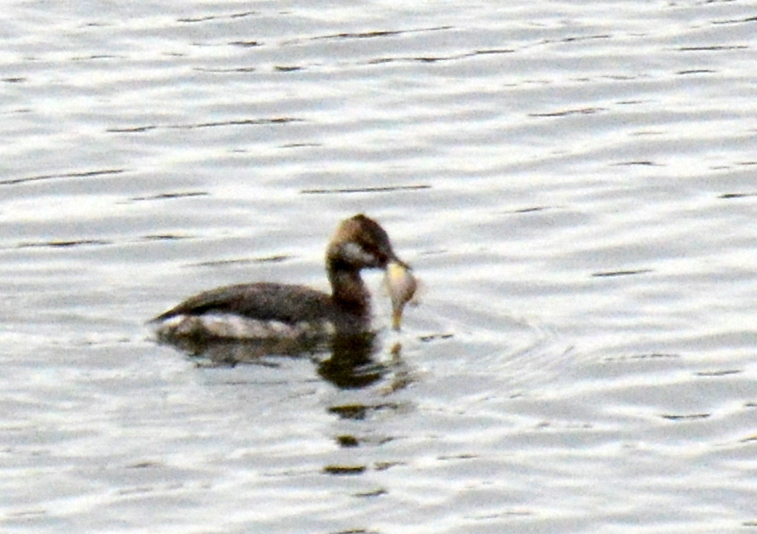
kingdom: Animalia
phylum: Chordata
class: Aves
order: Podicipediformes
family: Podicipedidae
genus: Podiceps
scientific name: Podiceps auritus
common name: Horned grebe
